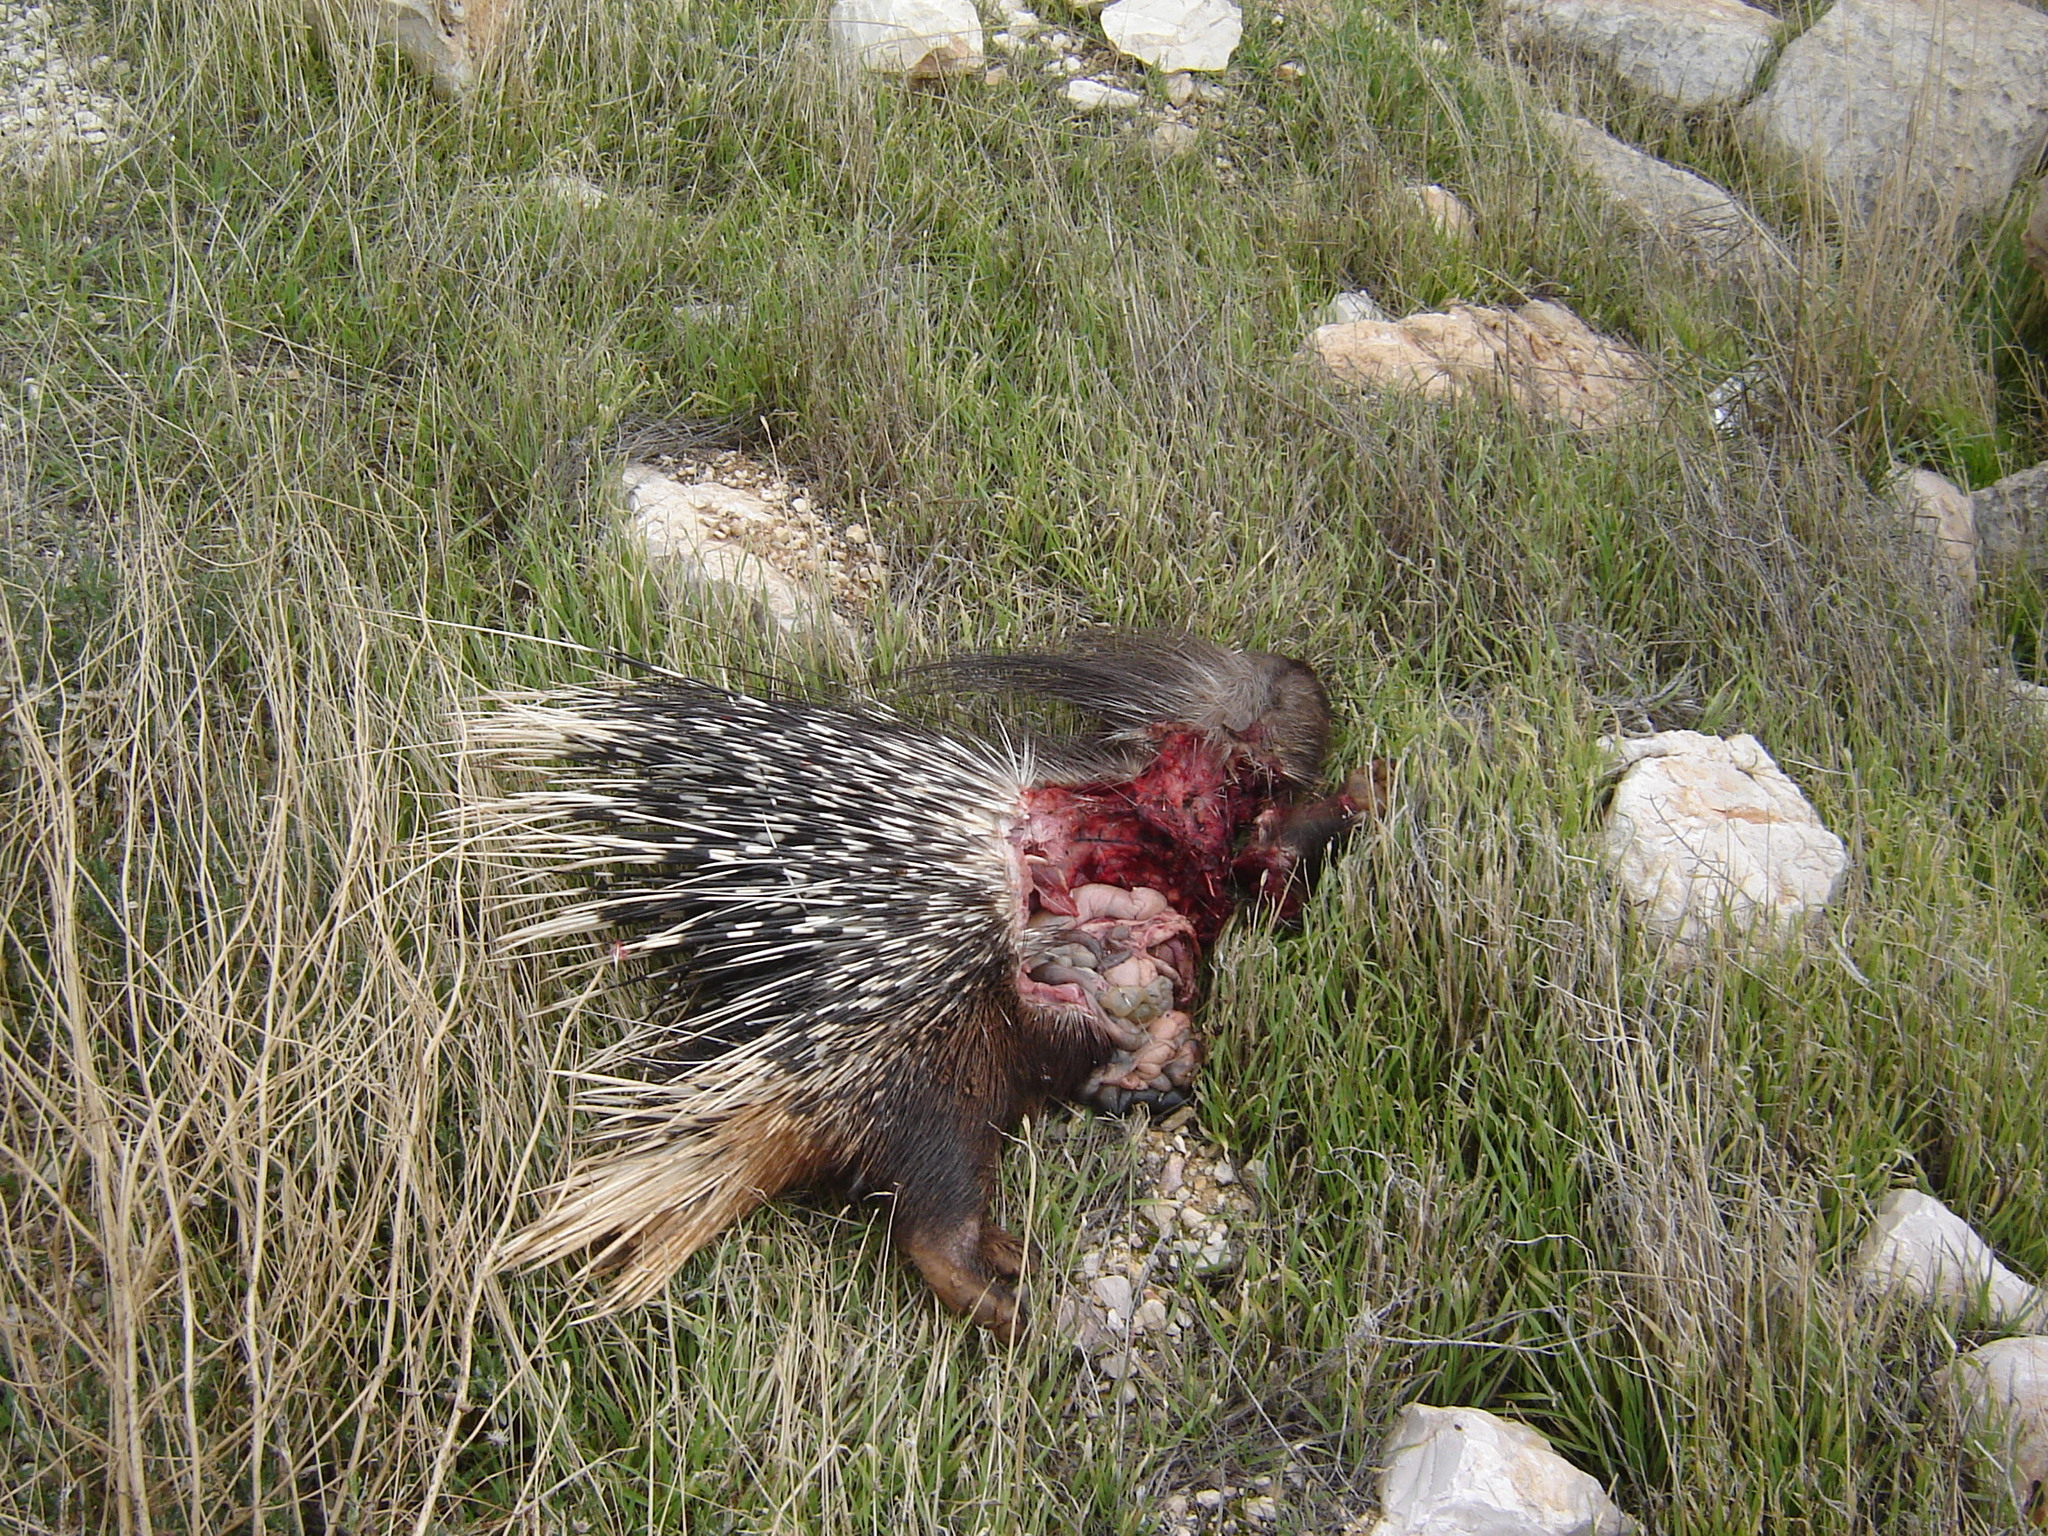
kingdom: Animalia
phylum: Chordata
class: Mammalia
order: Rodentia
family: Hystricidae
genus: Hystrix
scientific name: Hystrix indica
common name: Indian crested porcupine
